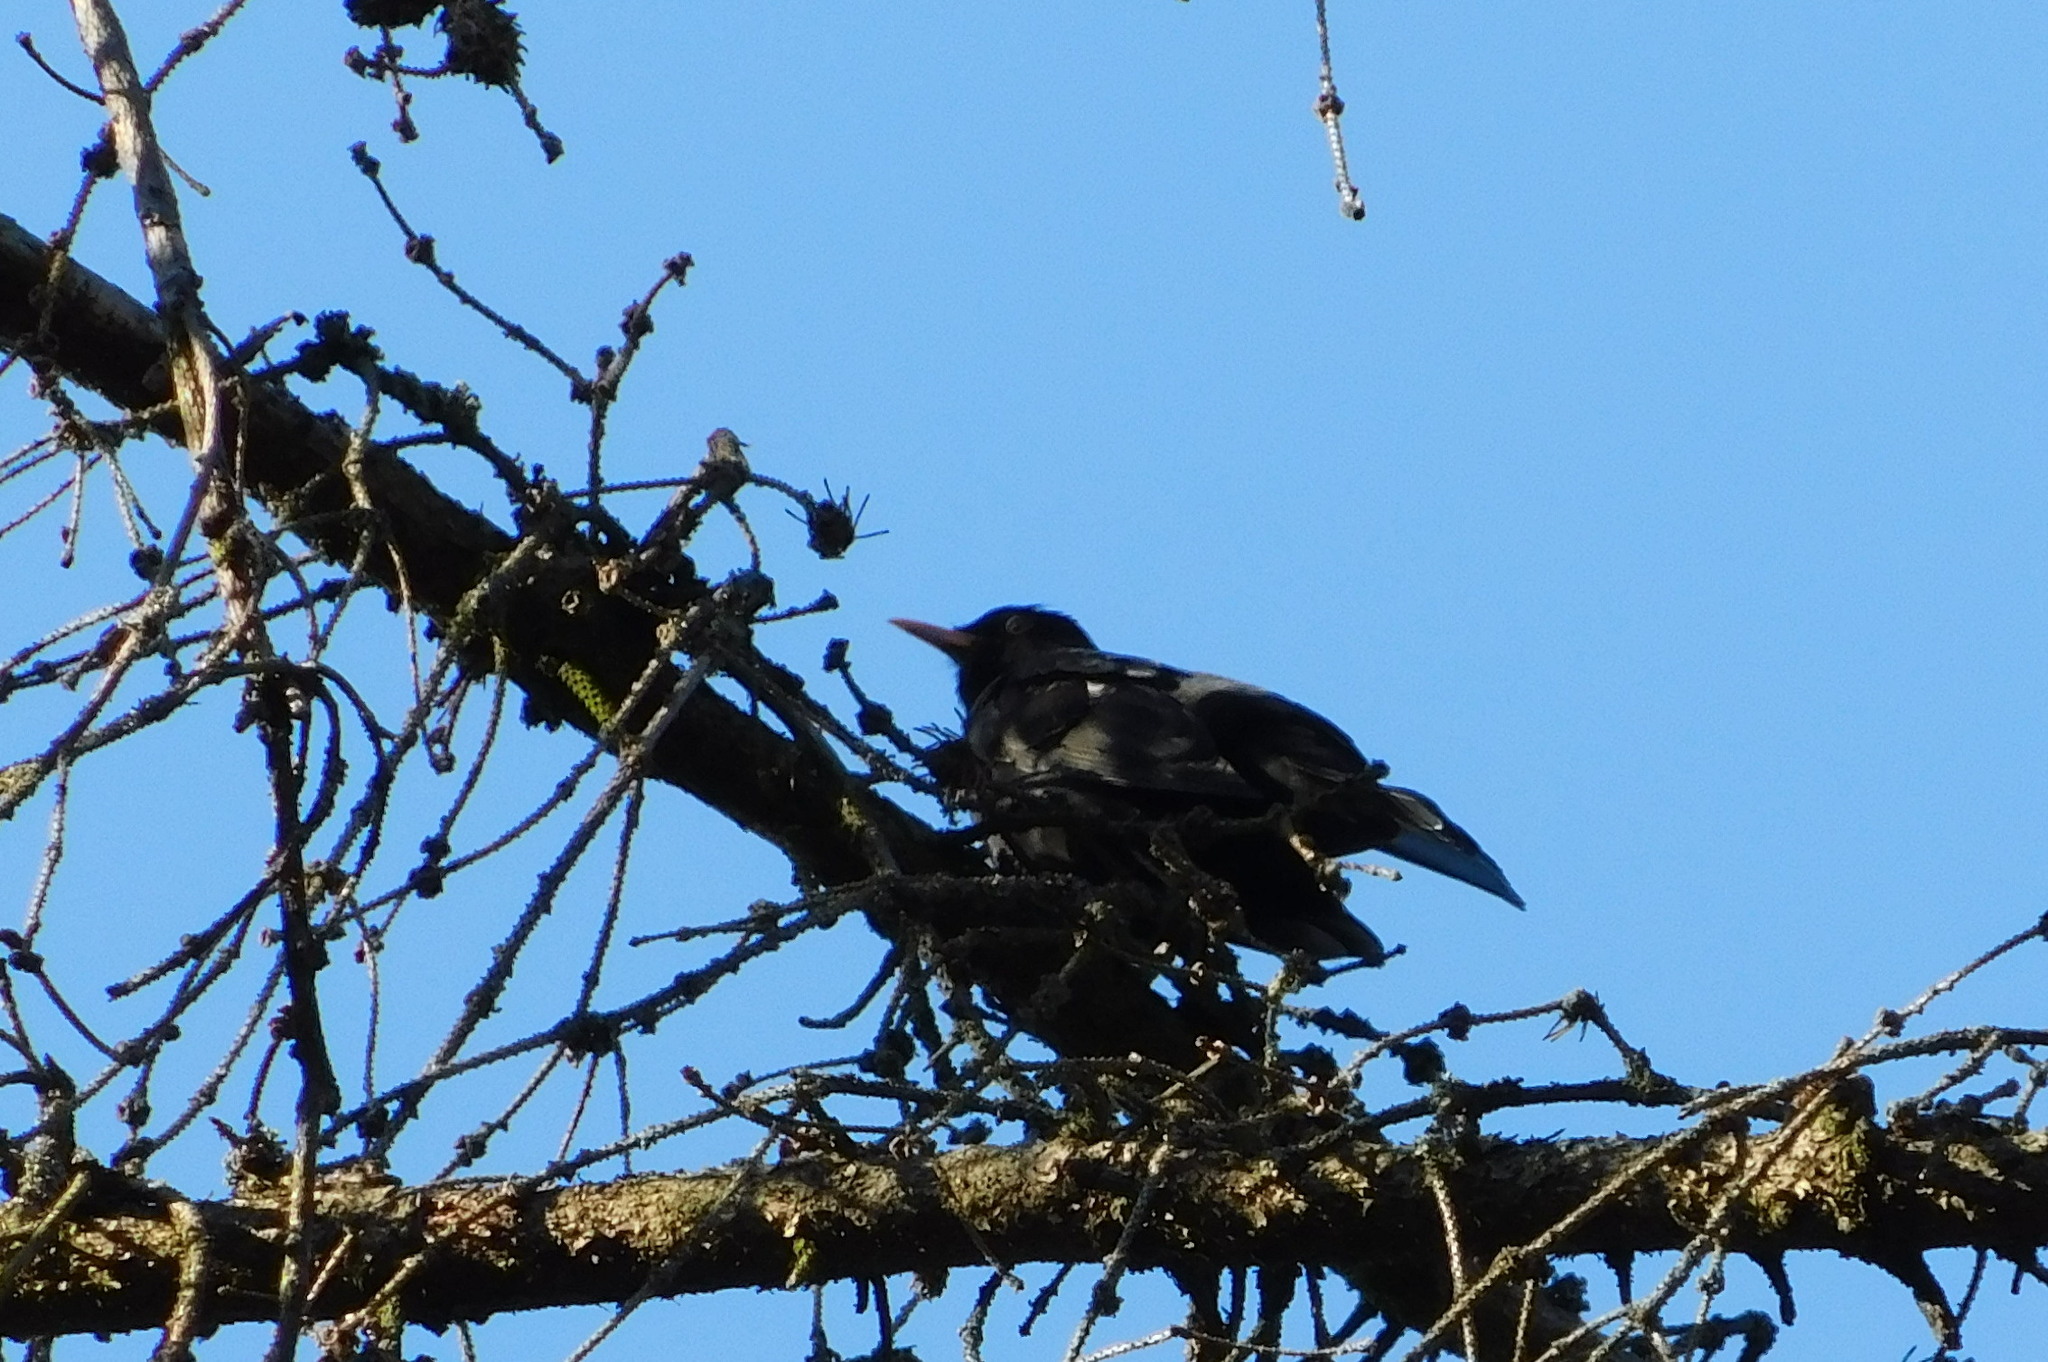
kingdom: Animalia
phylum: Chordata
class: Aves
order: Passeriformes
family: Turdidae
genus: Turdus
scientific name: Turdus merula
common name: Common blackbird
